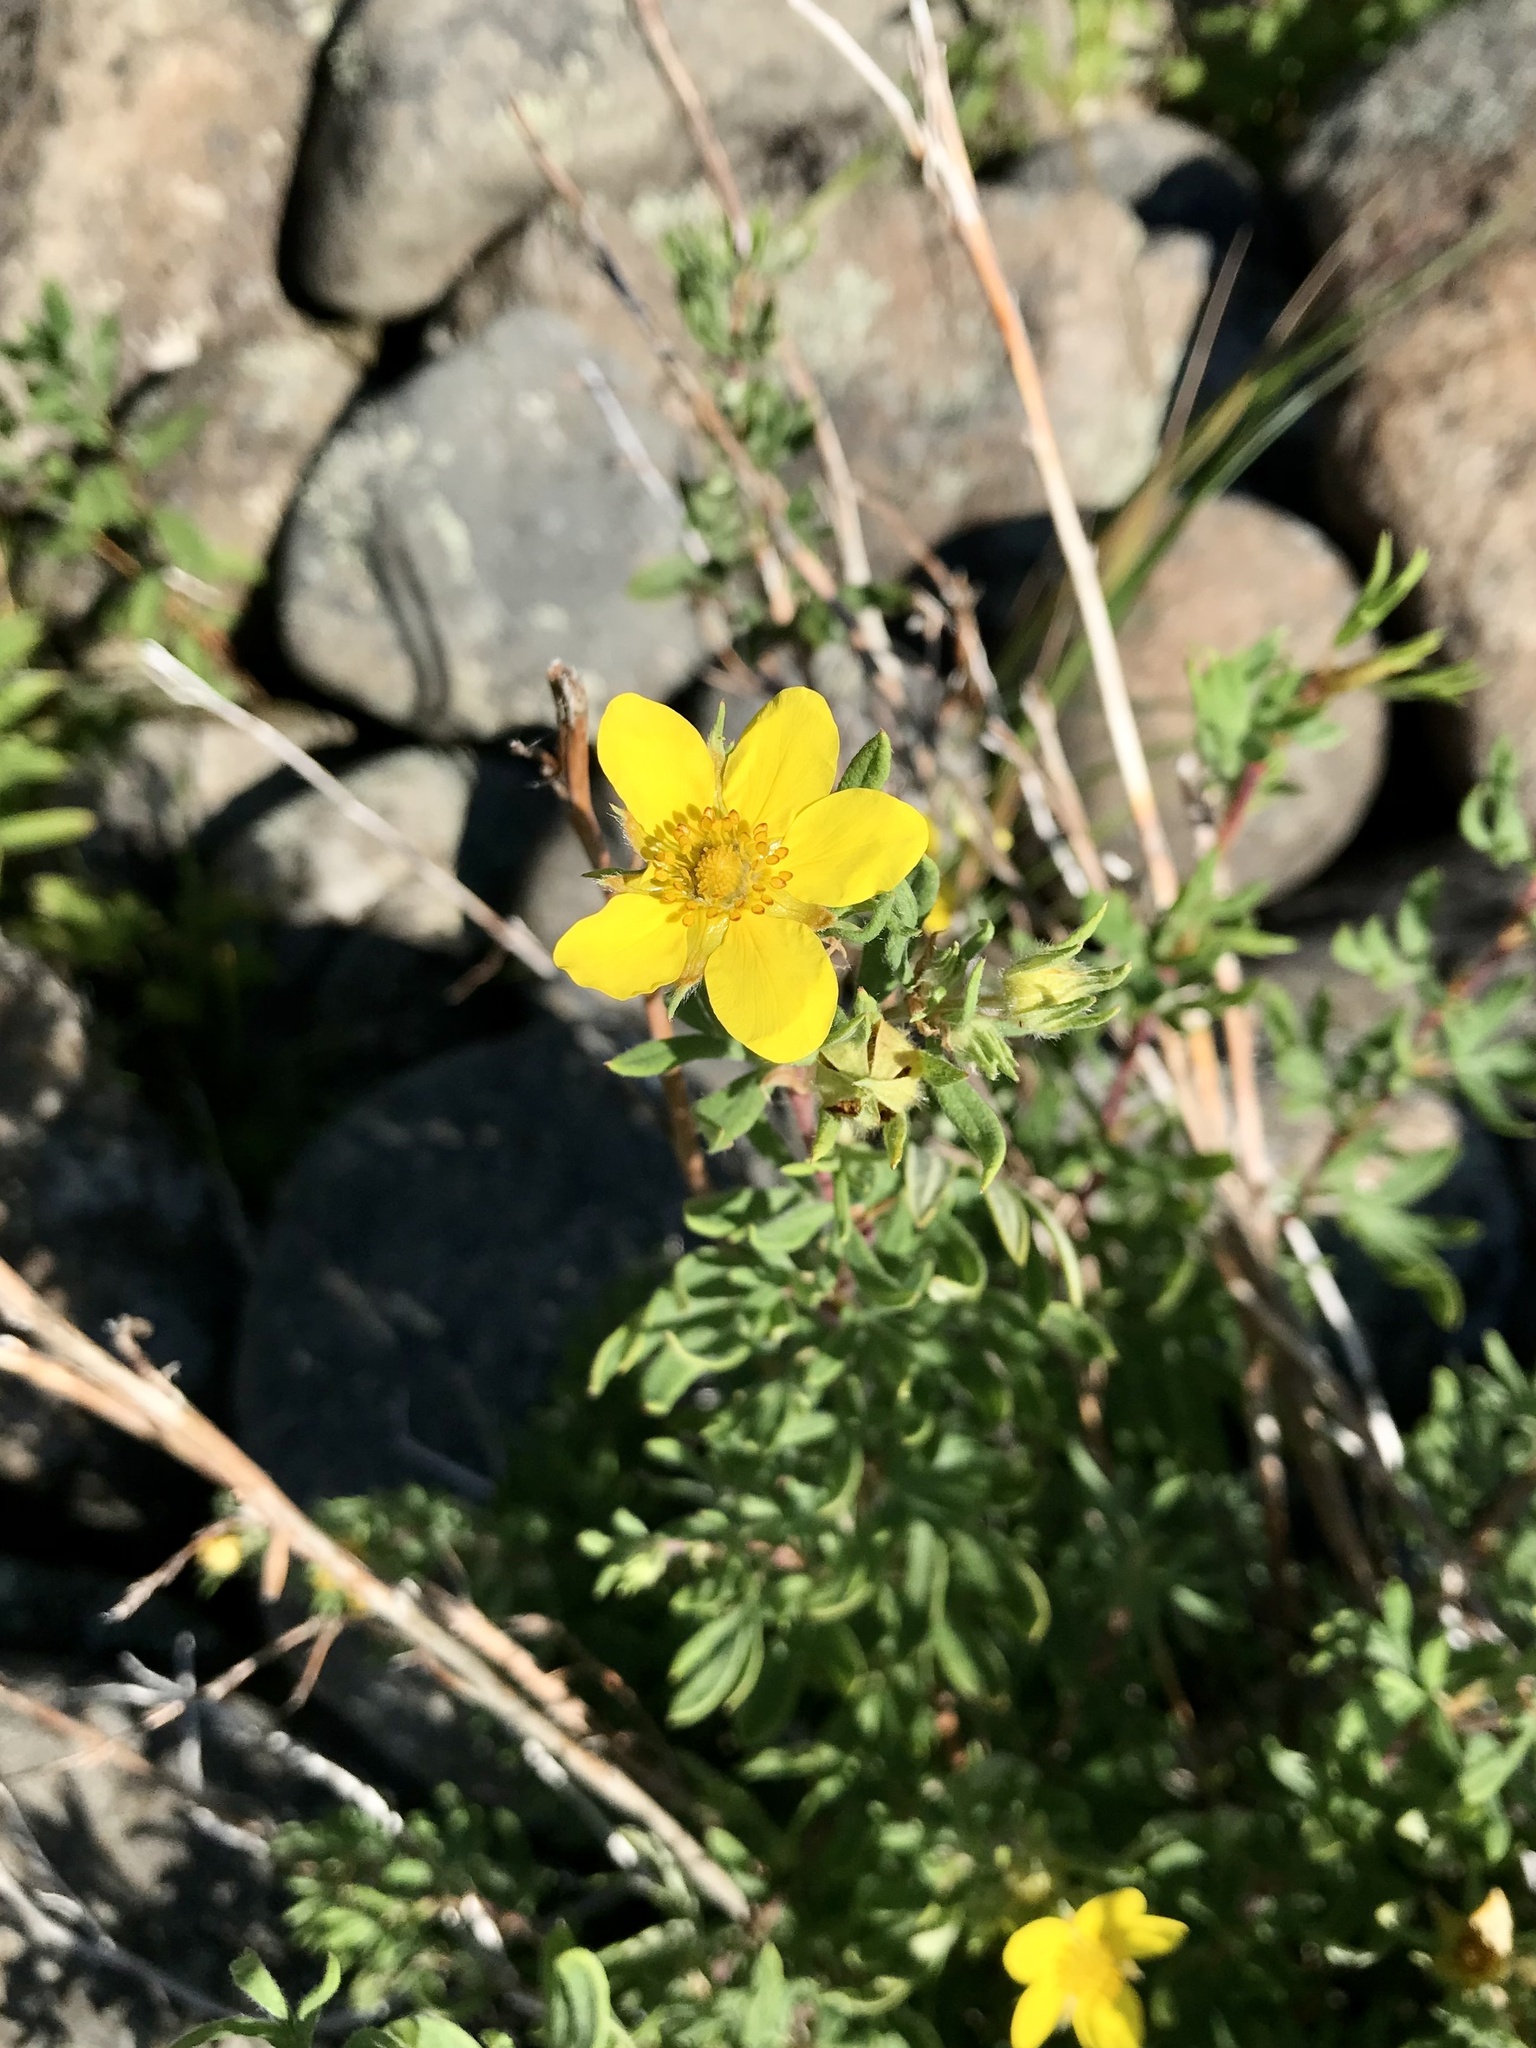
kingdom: Plantae
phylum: Tracheophyta
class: Magnoliopsida
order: Rosales
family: Rosaceae
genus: Dasiphora
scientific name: Dasiphora fruticosa
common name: Shrubby cinquefoil
